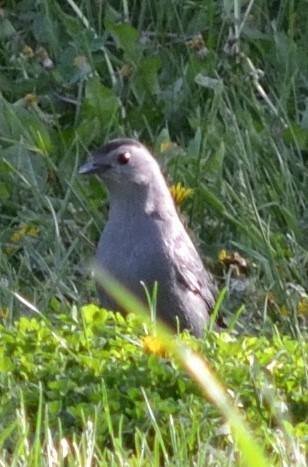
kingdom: Animalia
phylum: Chordata
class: Aves
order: Passeriformes
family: Mimidae
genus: Dumetella
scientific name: Dumetella carolinensis
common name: Gray catbird
